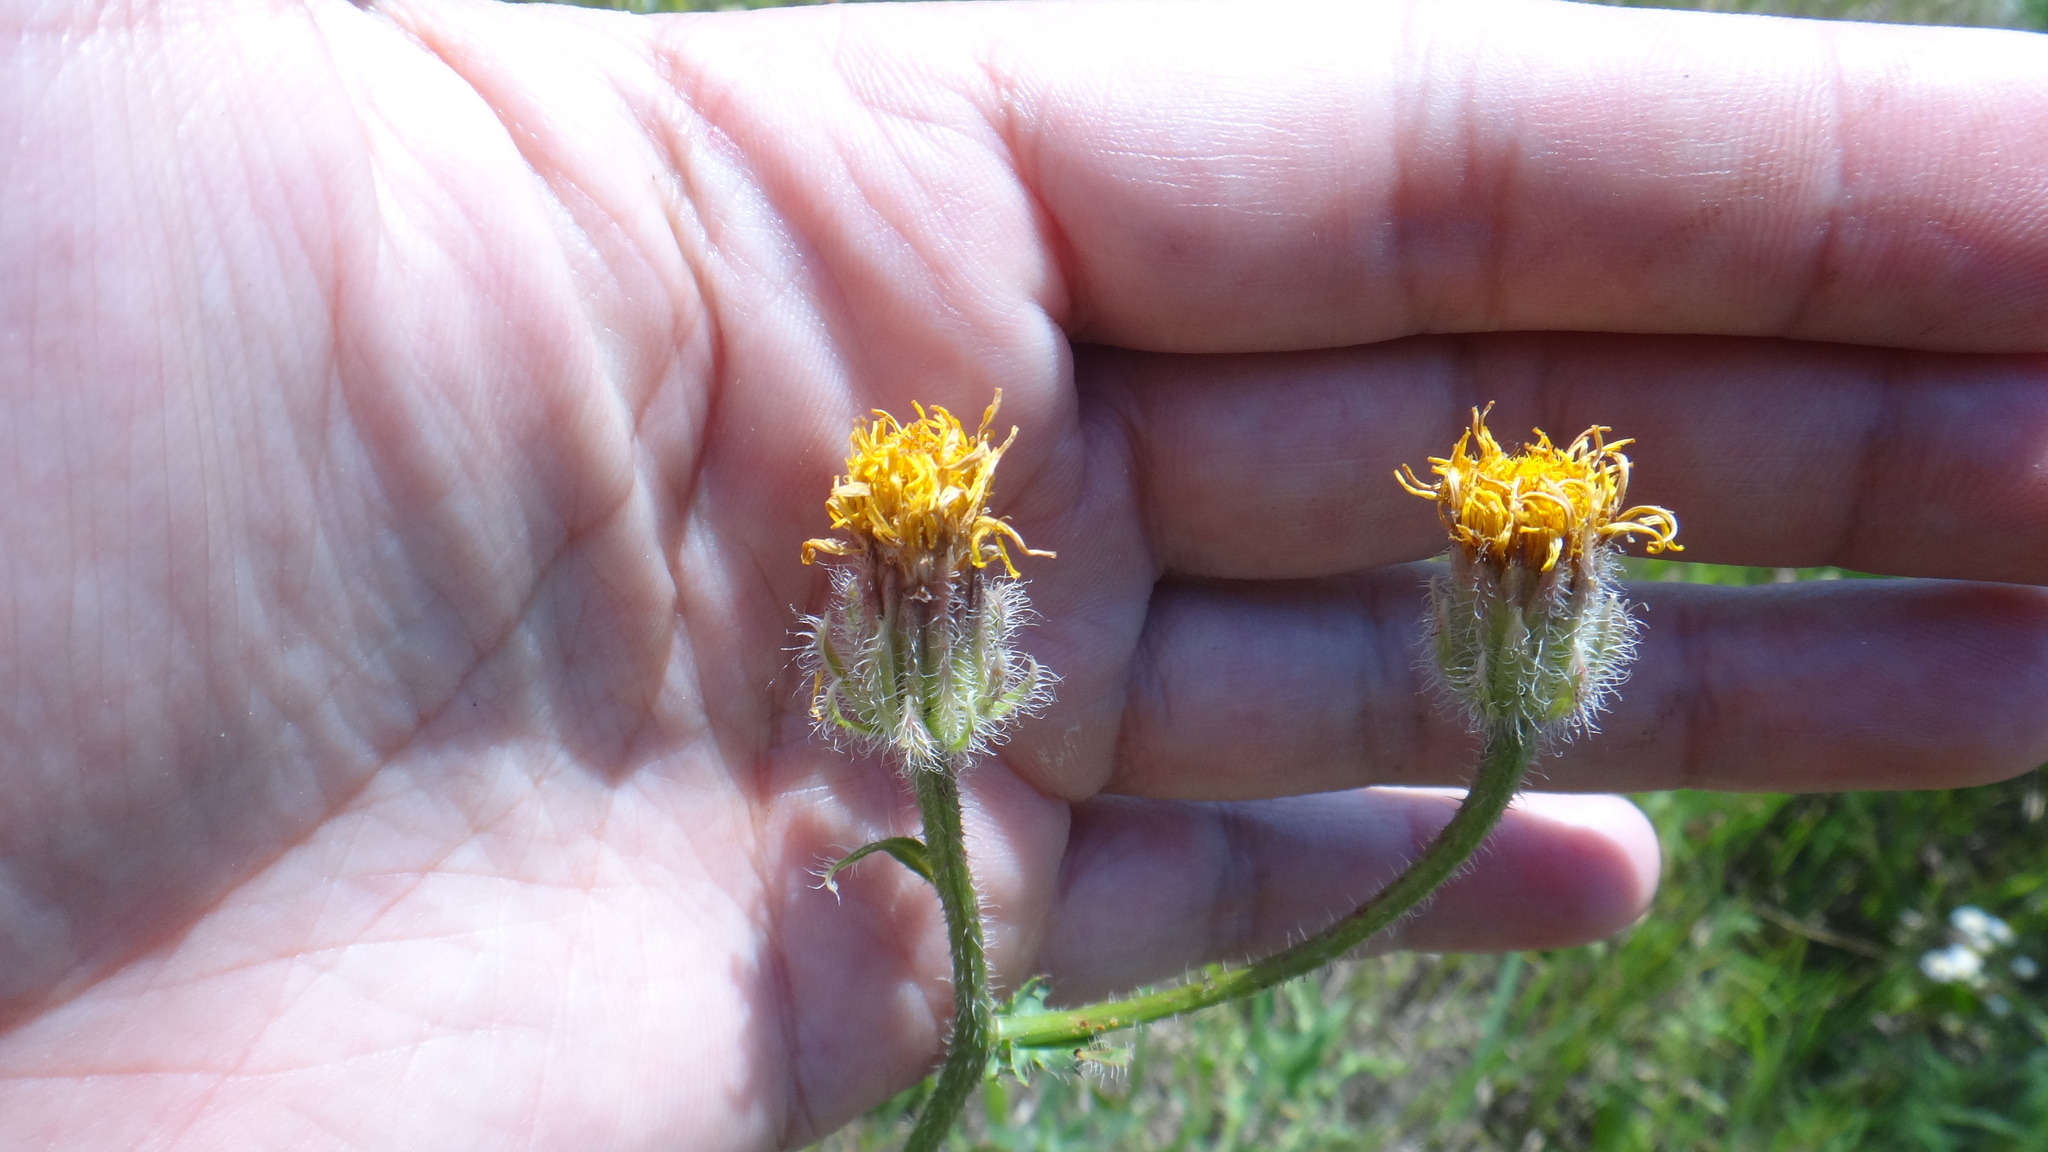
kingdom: Plantae
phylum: Tracheophyta
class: Magnoliopsida
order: Asterales
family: Asteraceae
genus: Crepis
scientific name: Crepis foetida
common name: Stinking hawk's-beard
